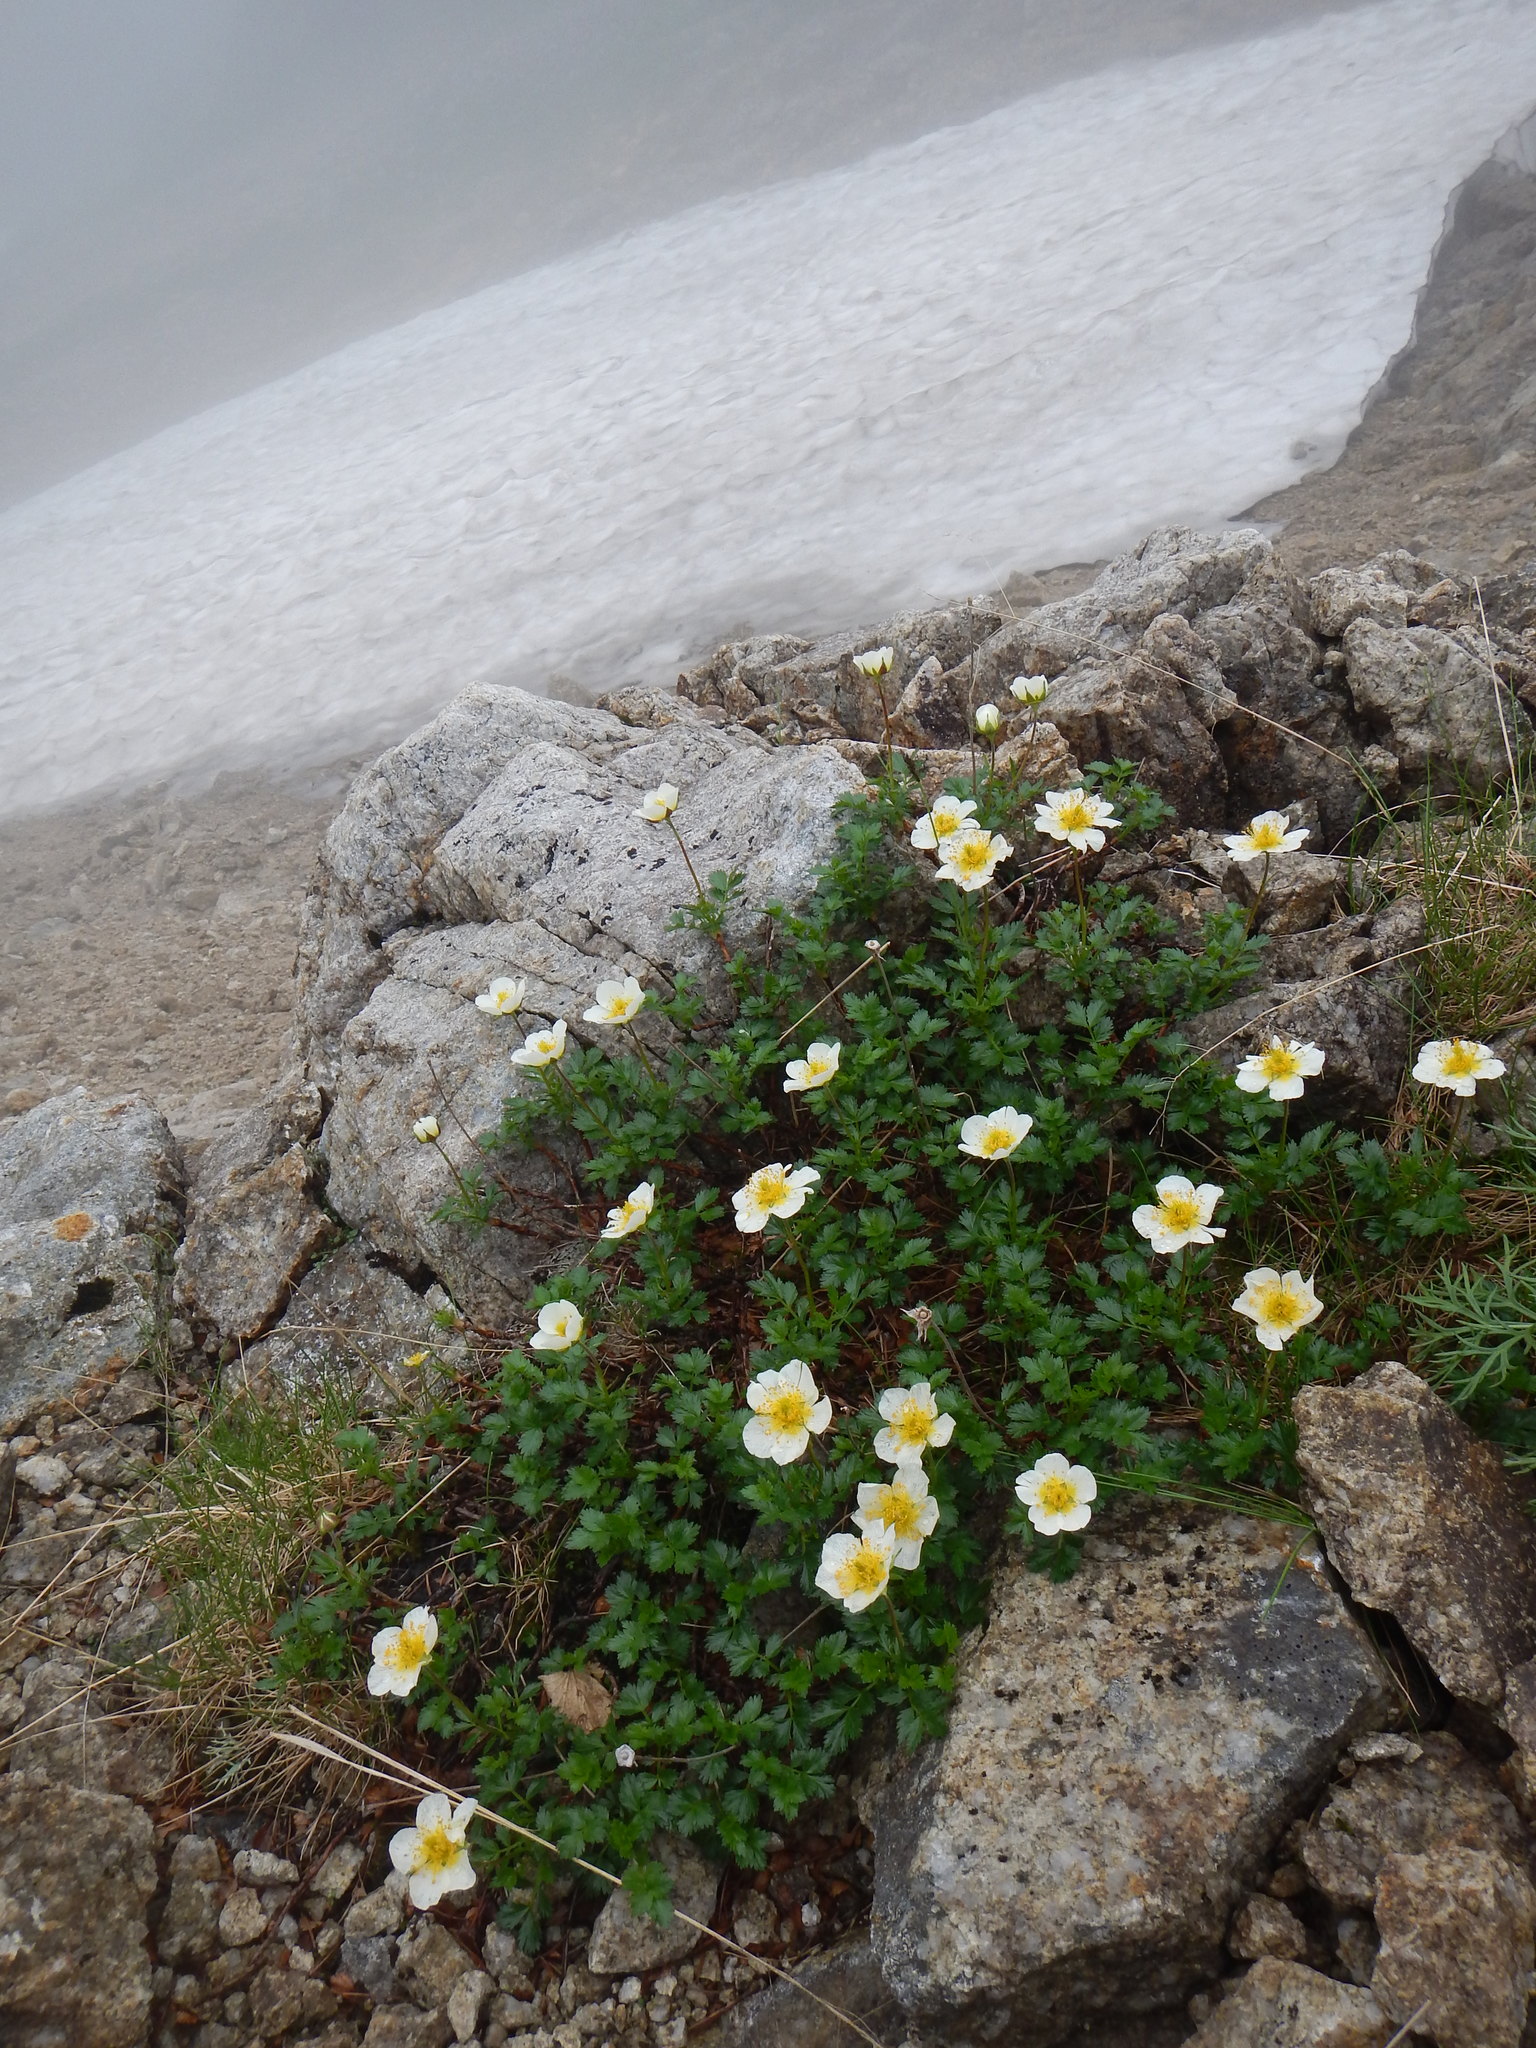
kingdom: Plantae
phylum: Tracheophyta
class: Magnoliopsida
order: Rosales
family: Rosaceae
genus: Geum
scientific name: Geum pentapetalum
